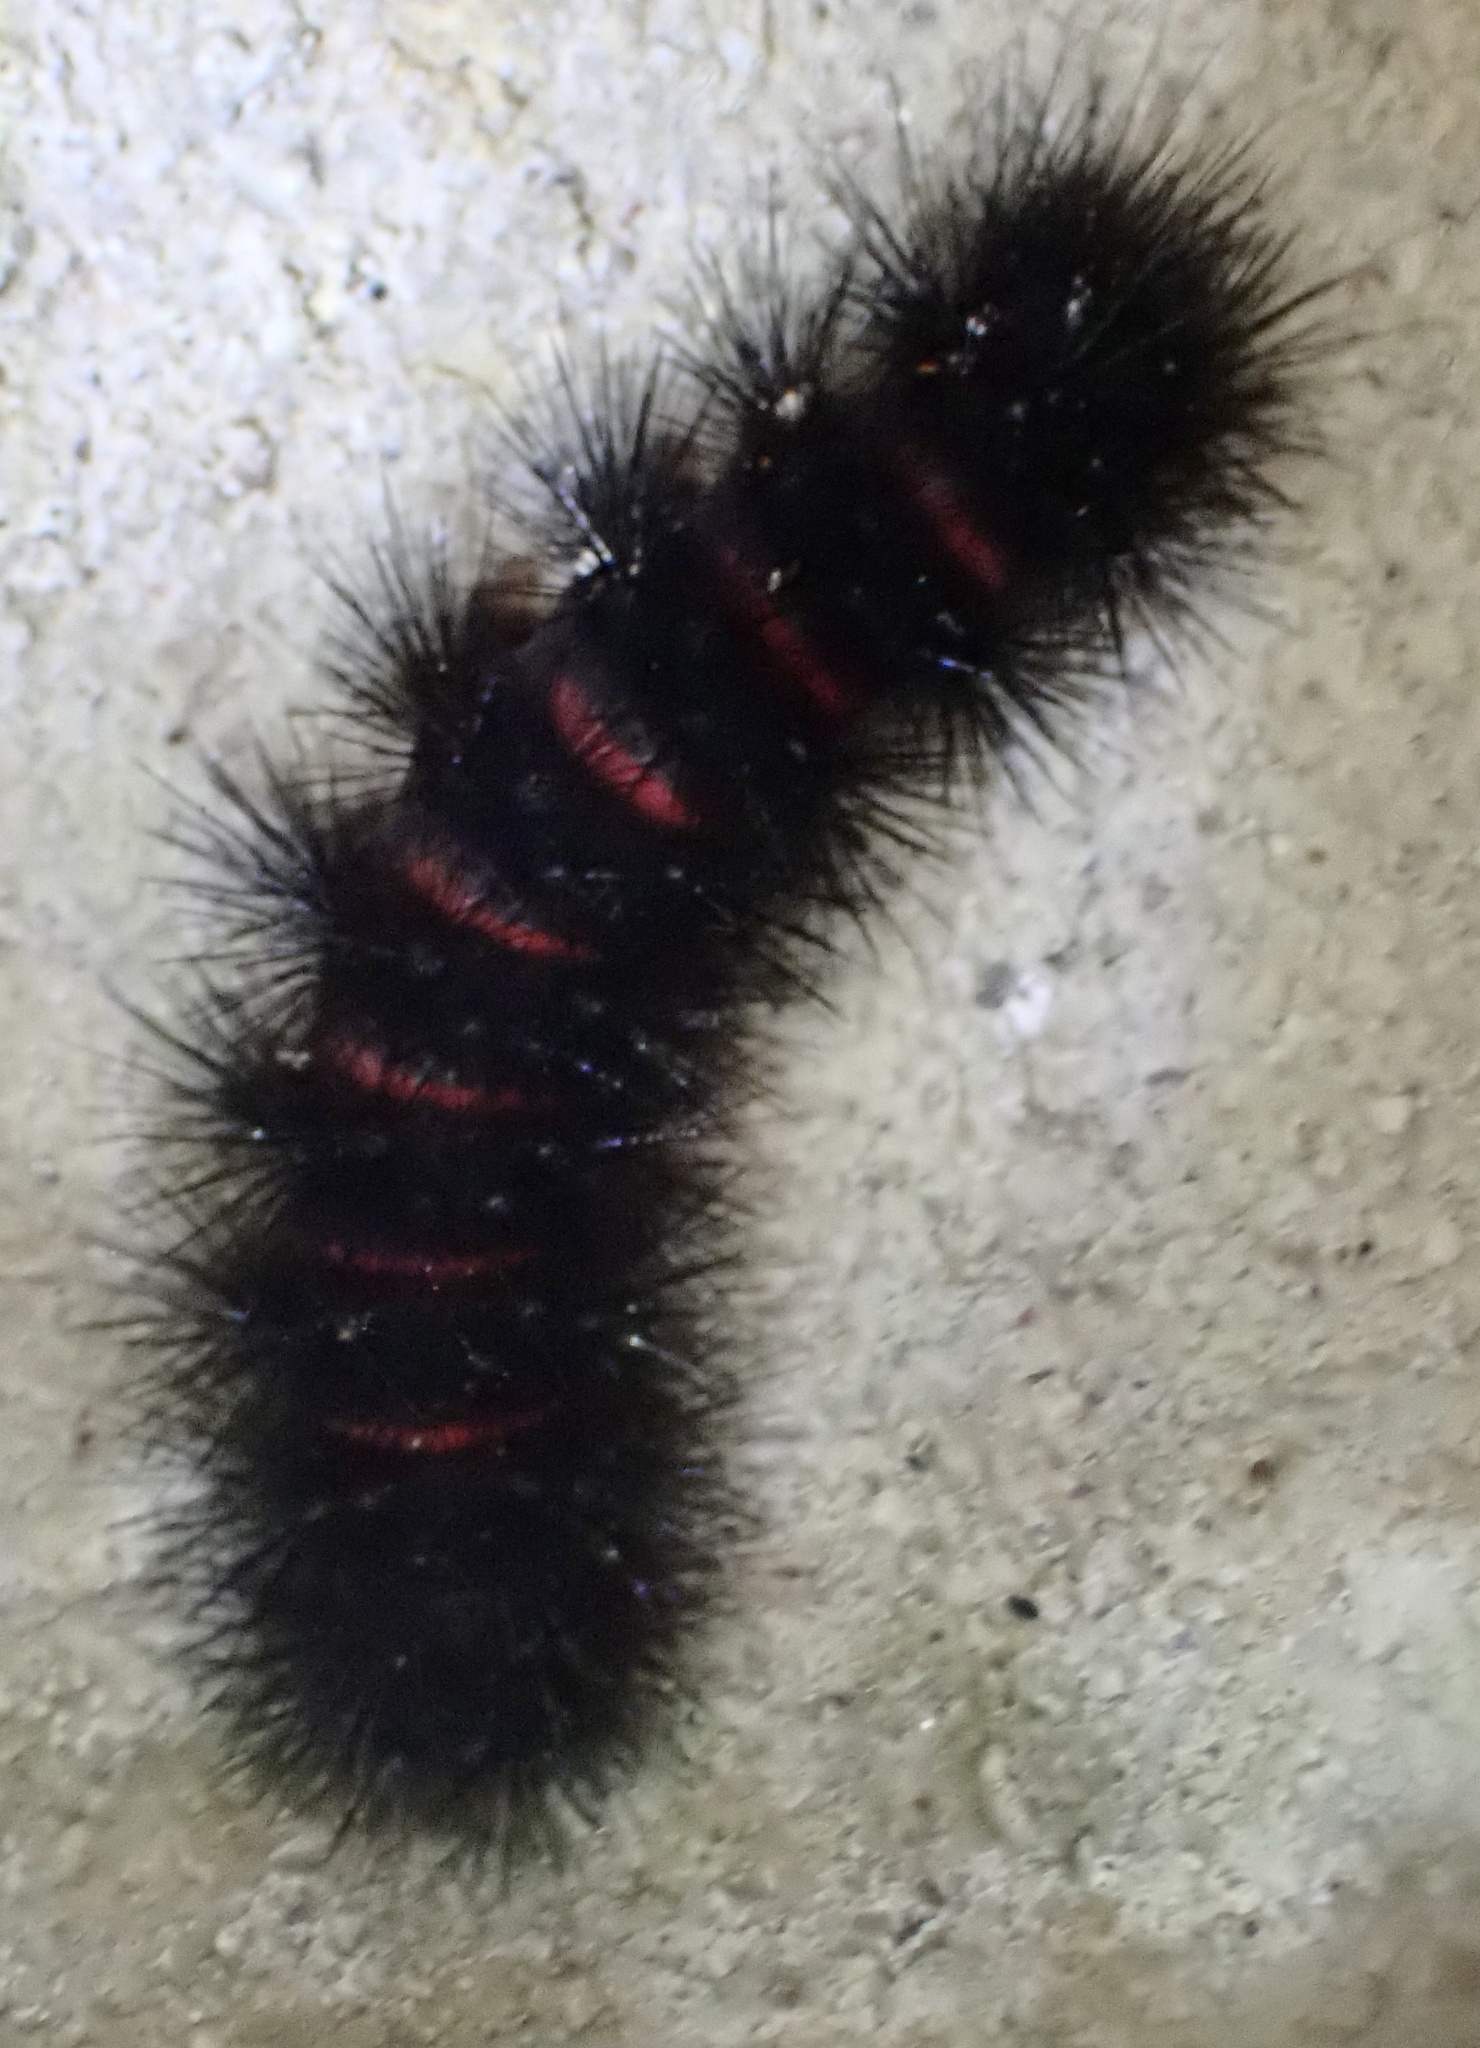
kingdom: Animalia
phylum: Arthropoda
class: Insecta
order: Lepidoptera
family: Erebidae
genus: Hypercompe
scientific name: Hypercompe scribonia
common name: Giant leopard moth
